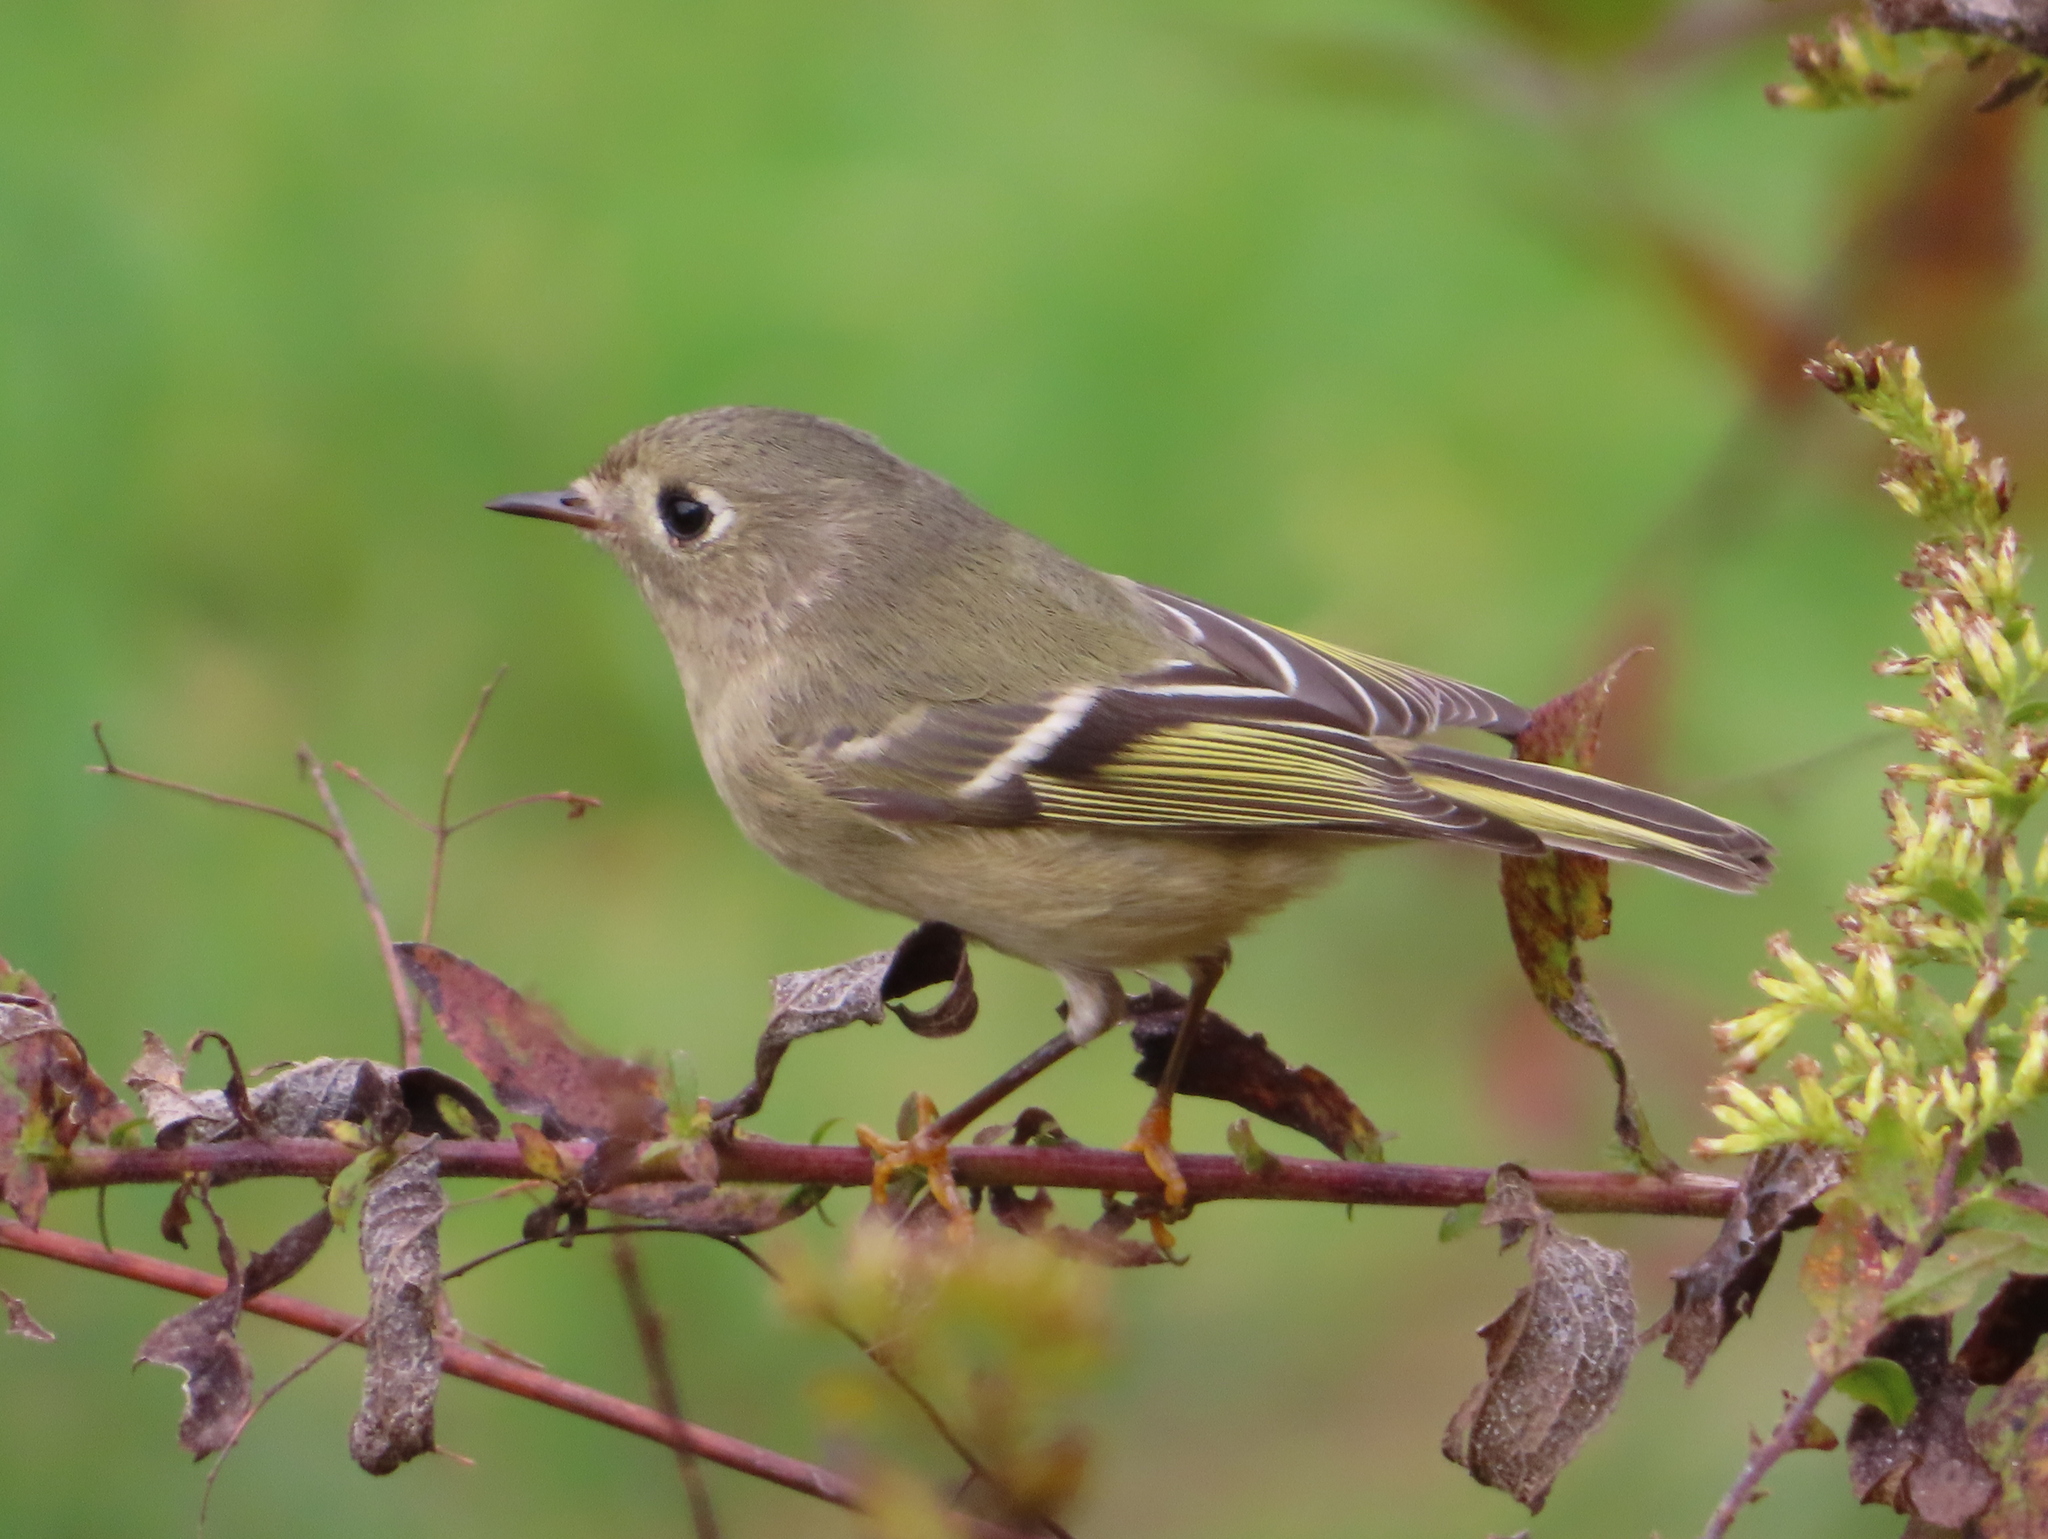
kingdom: Animalia
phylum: Chordata
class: Aves
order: Passeriformes
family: Regulidae
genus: Regulus
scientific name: Regulus calendula
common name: Ruby-crowned kinglet
